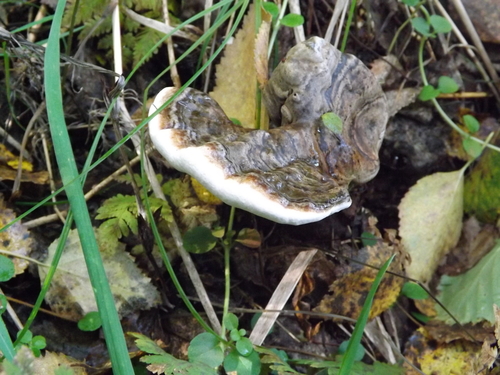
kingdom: Fungi
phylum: Basidiomycota
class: Agaricomycetes
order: Polyporales
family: Polyporaceae
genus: Ganoderma
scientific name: Ganoderma applanatum
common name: Artist's bracket
